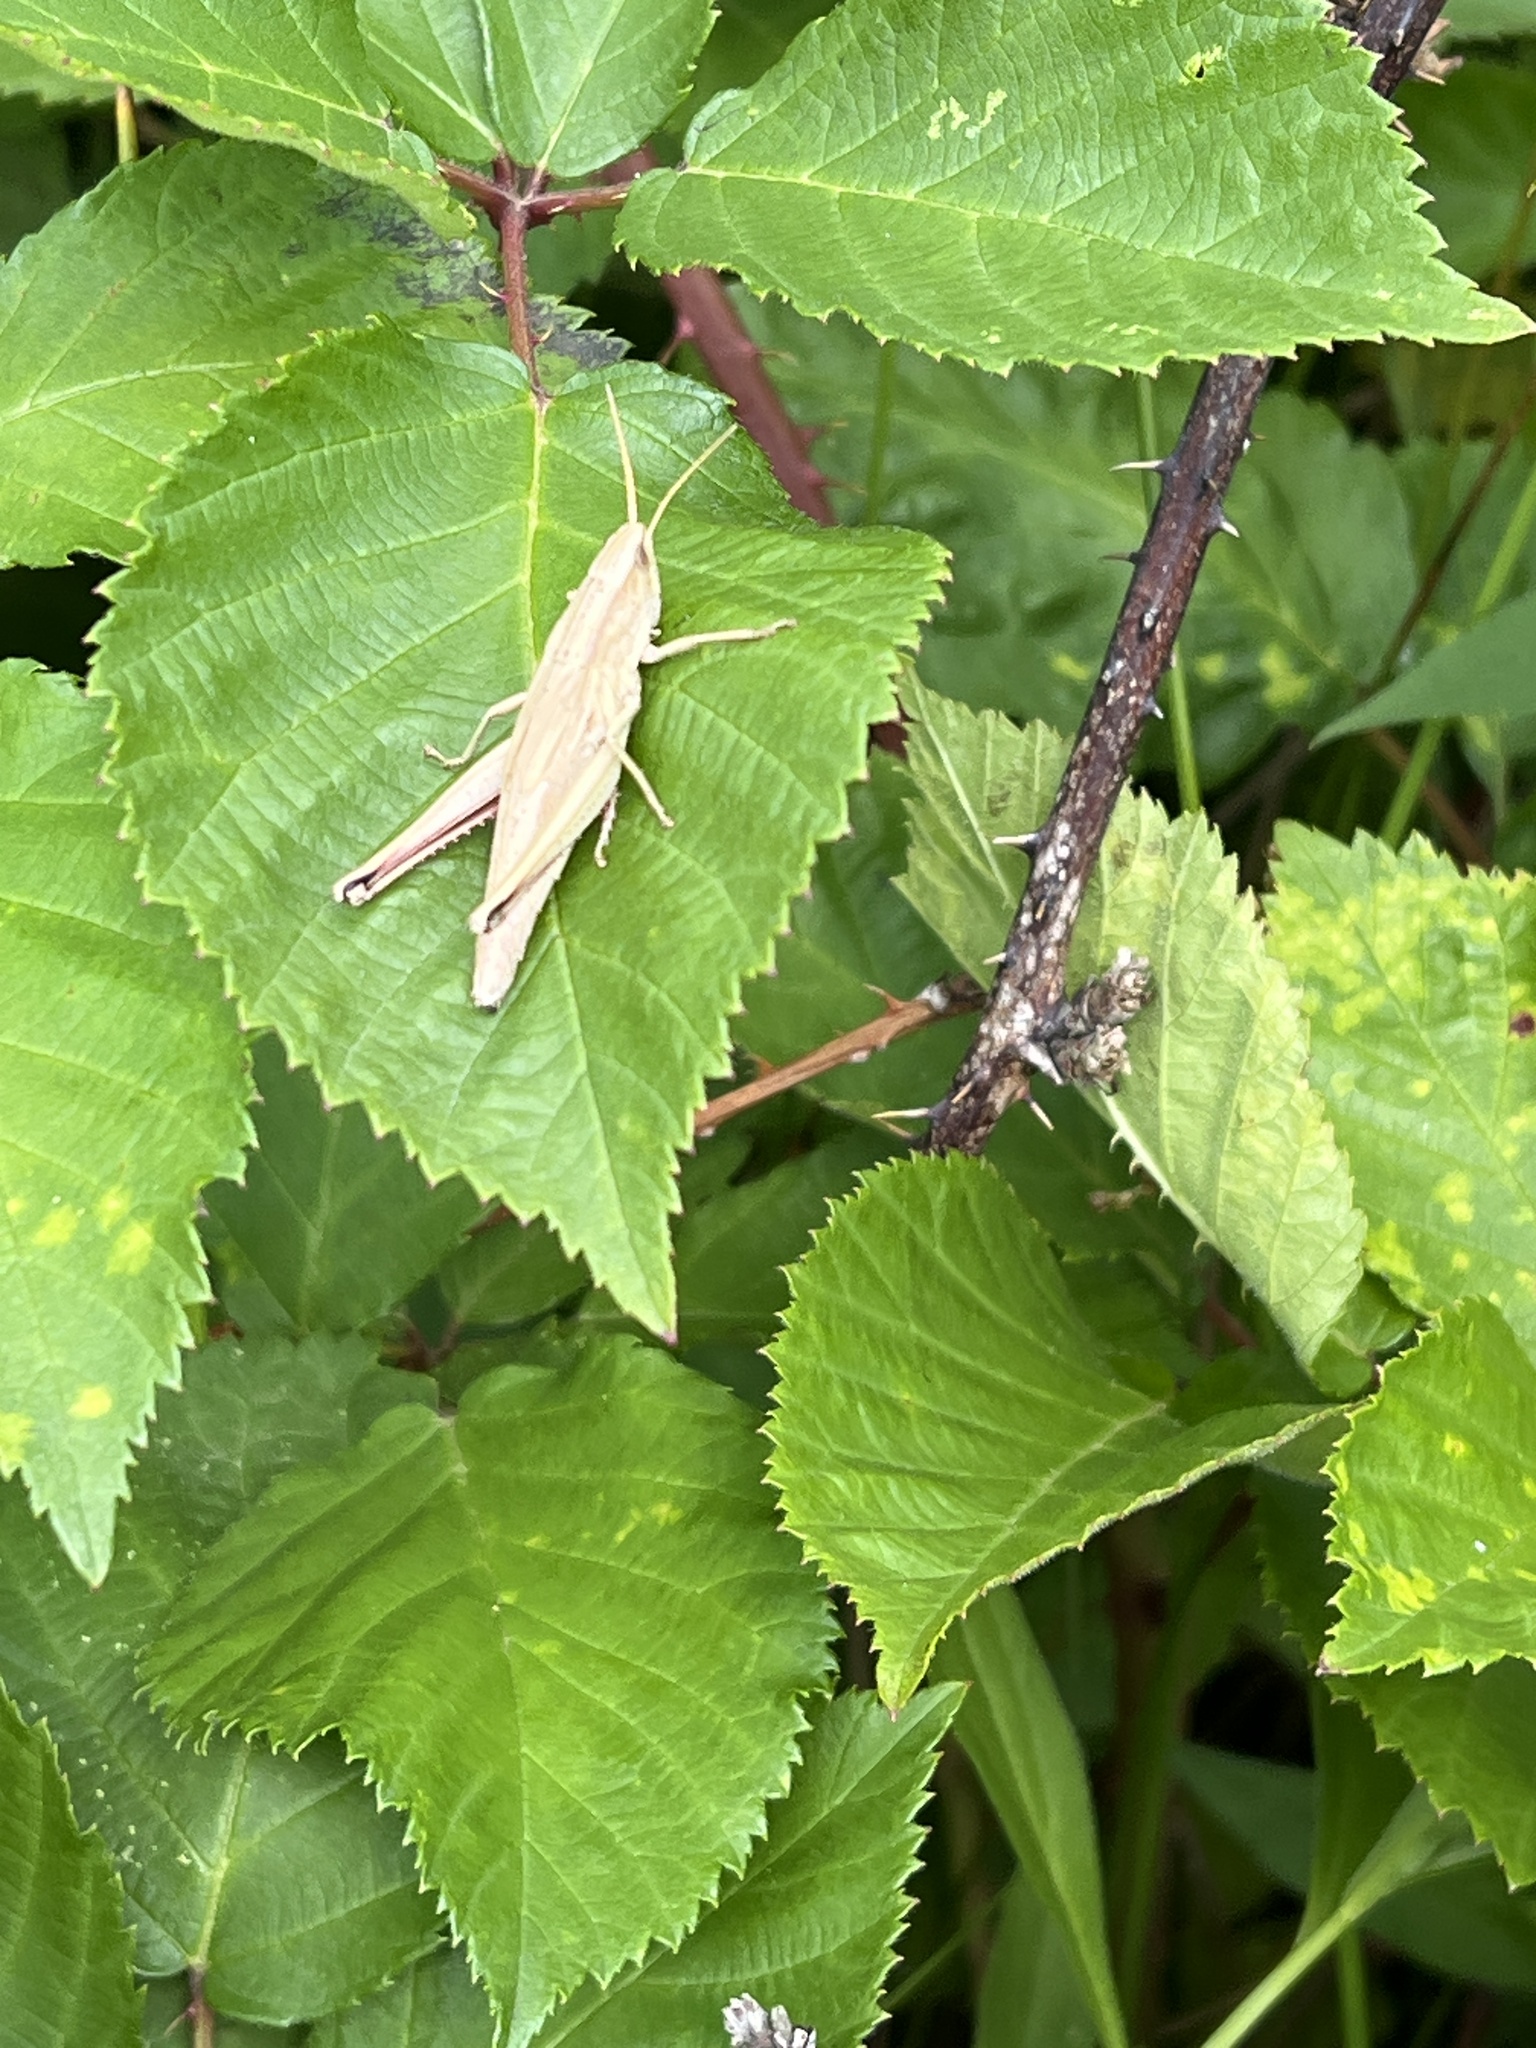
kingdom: Animalia
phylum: Arthropoda
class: Insecta
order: Orthoptera
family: Acrididae
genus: Chrysochraon
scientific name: Chrysochraon dispar
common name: Large gold grasshopper
